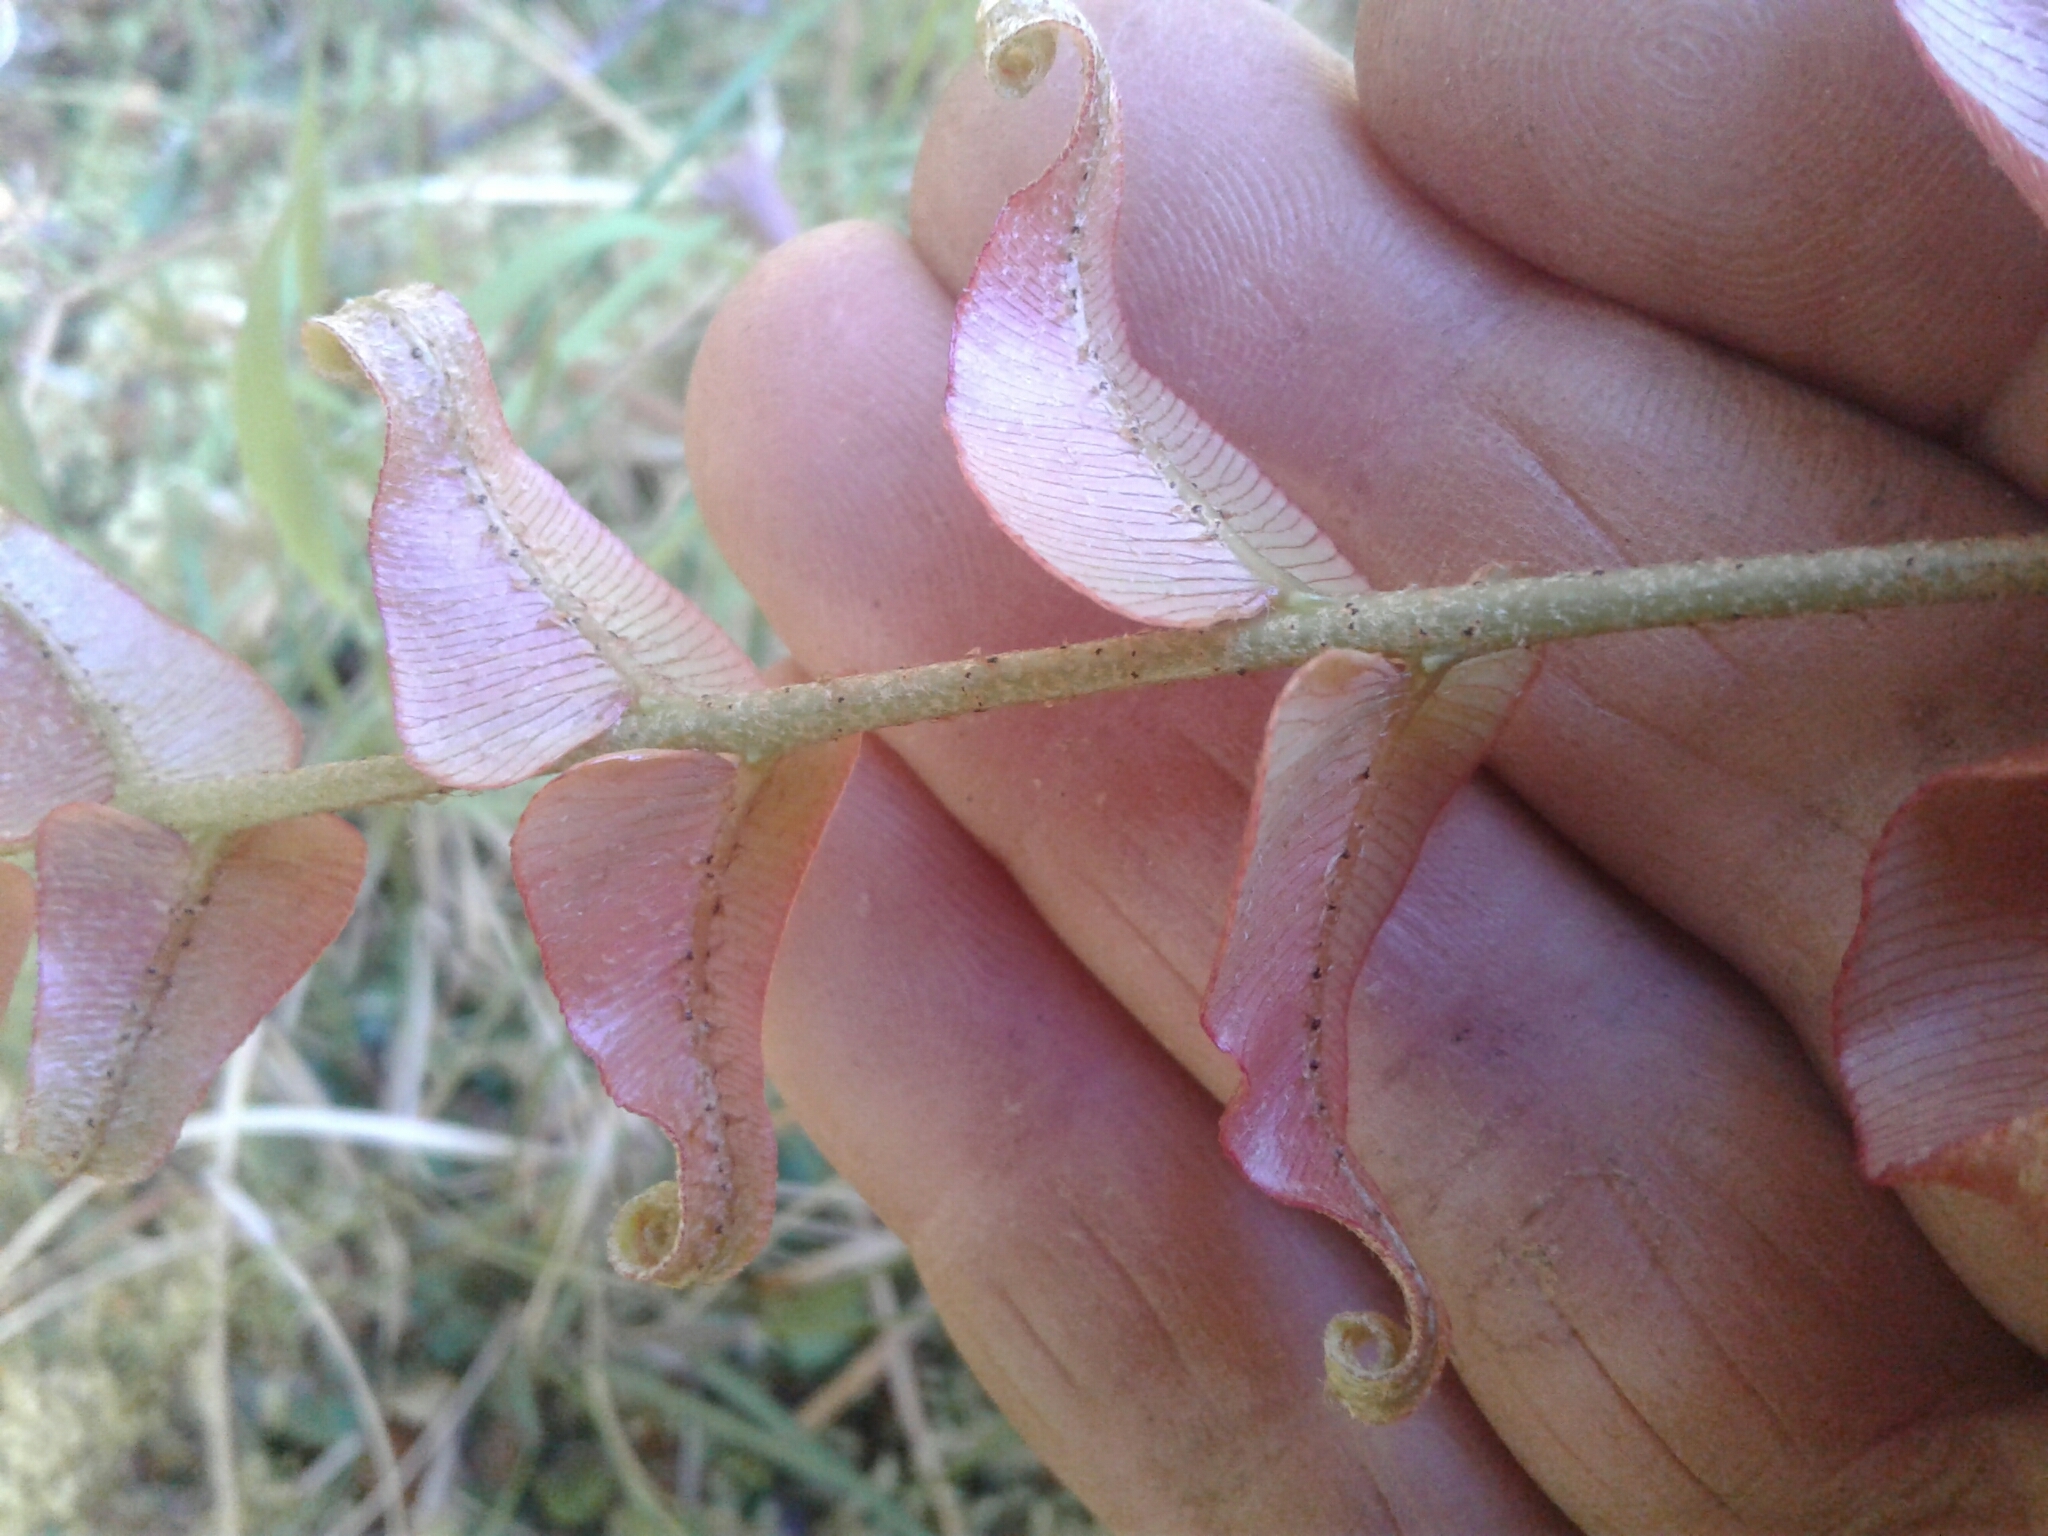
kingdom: Plantae
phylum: Tracheophyta
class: Polypodiopsida
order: Polypodiales
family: Blechnaceae
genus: Parablechnum
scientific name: Parablechnum novae-zelandiae
